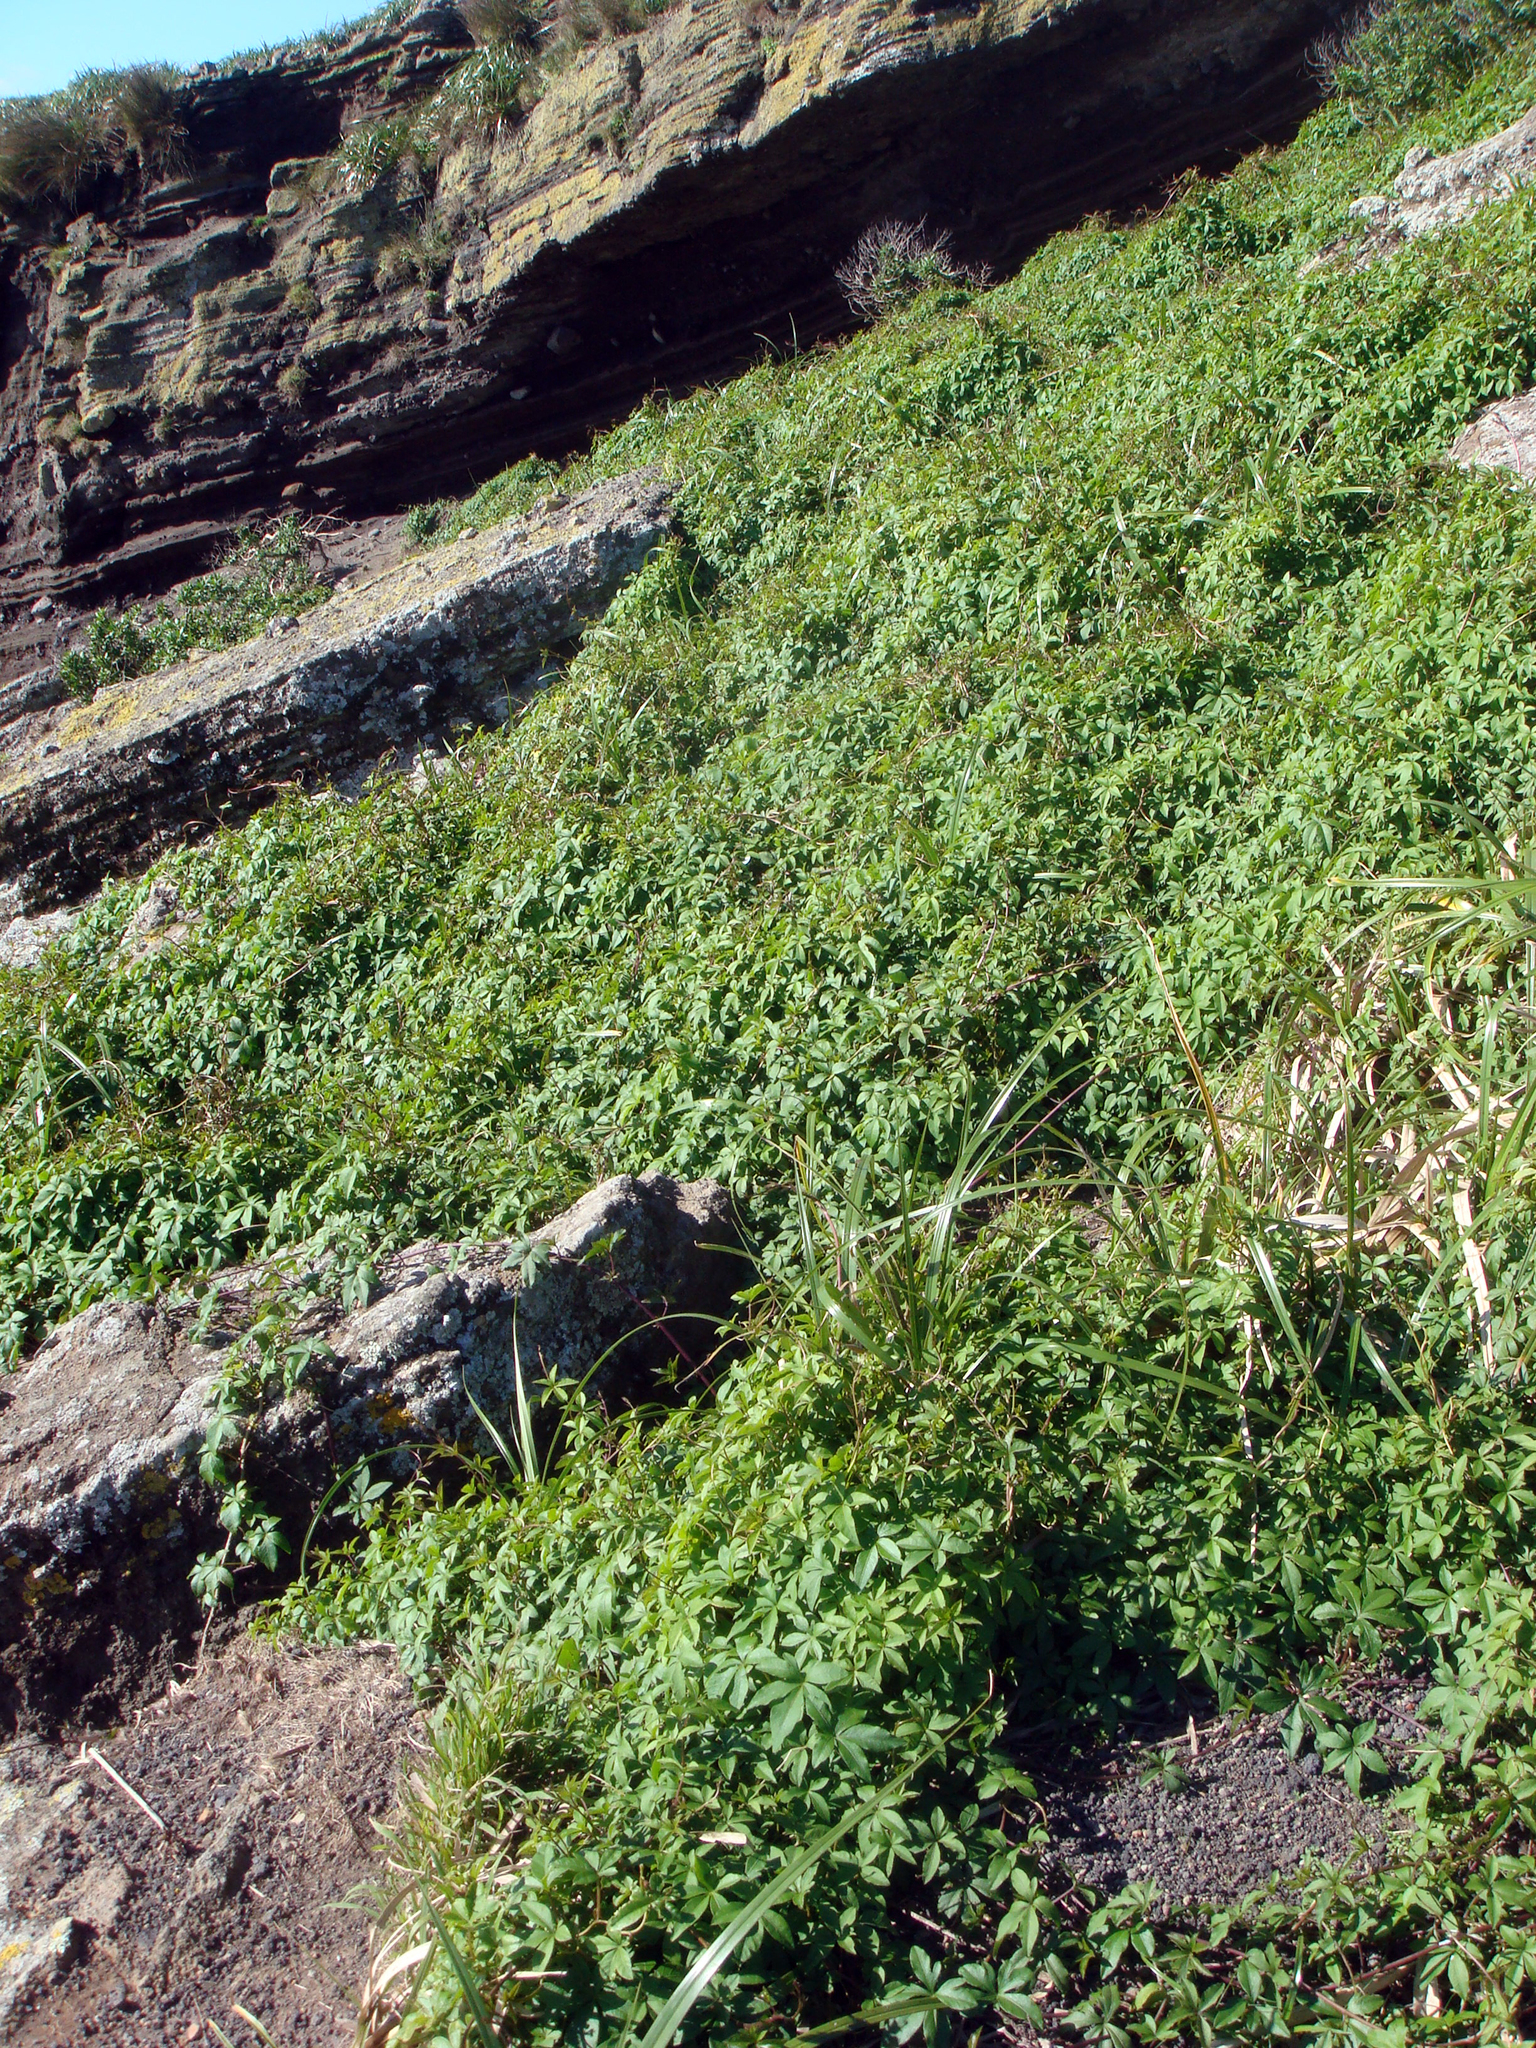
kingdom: Plantae
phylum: Tracheophyta
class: Magnoliopsida
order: Solanales
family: Convolvulaceae
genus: Ipomoea
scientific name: Ipomoea cairica
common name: Mile a minute vine
